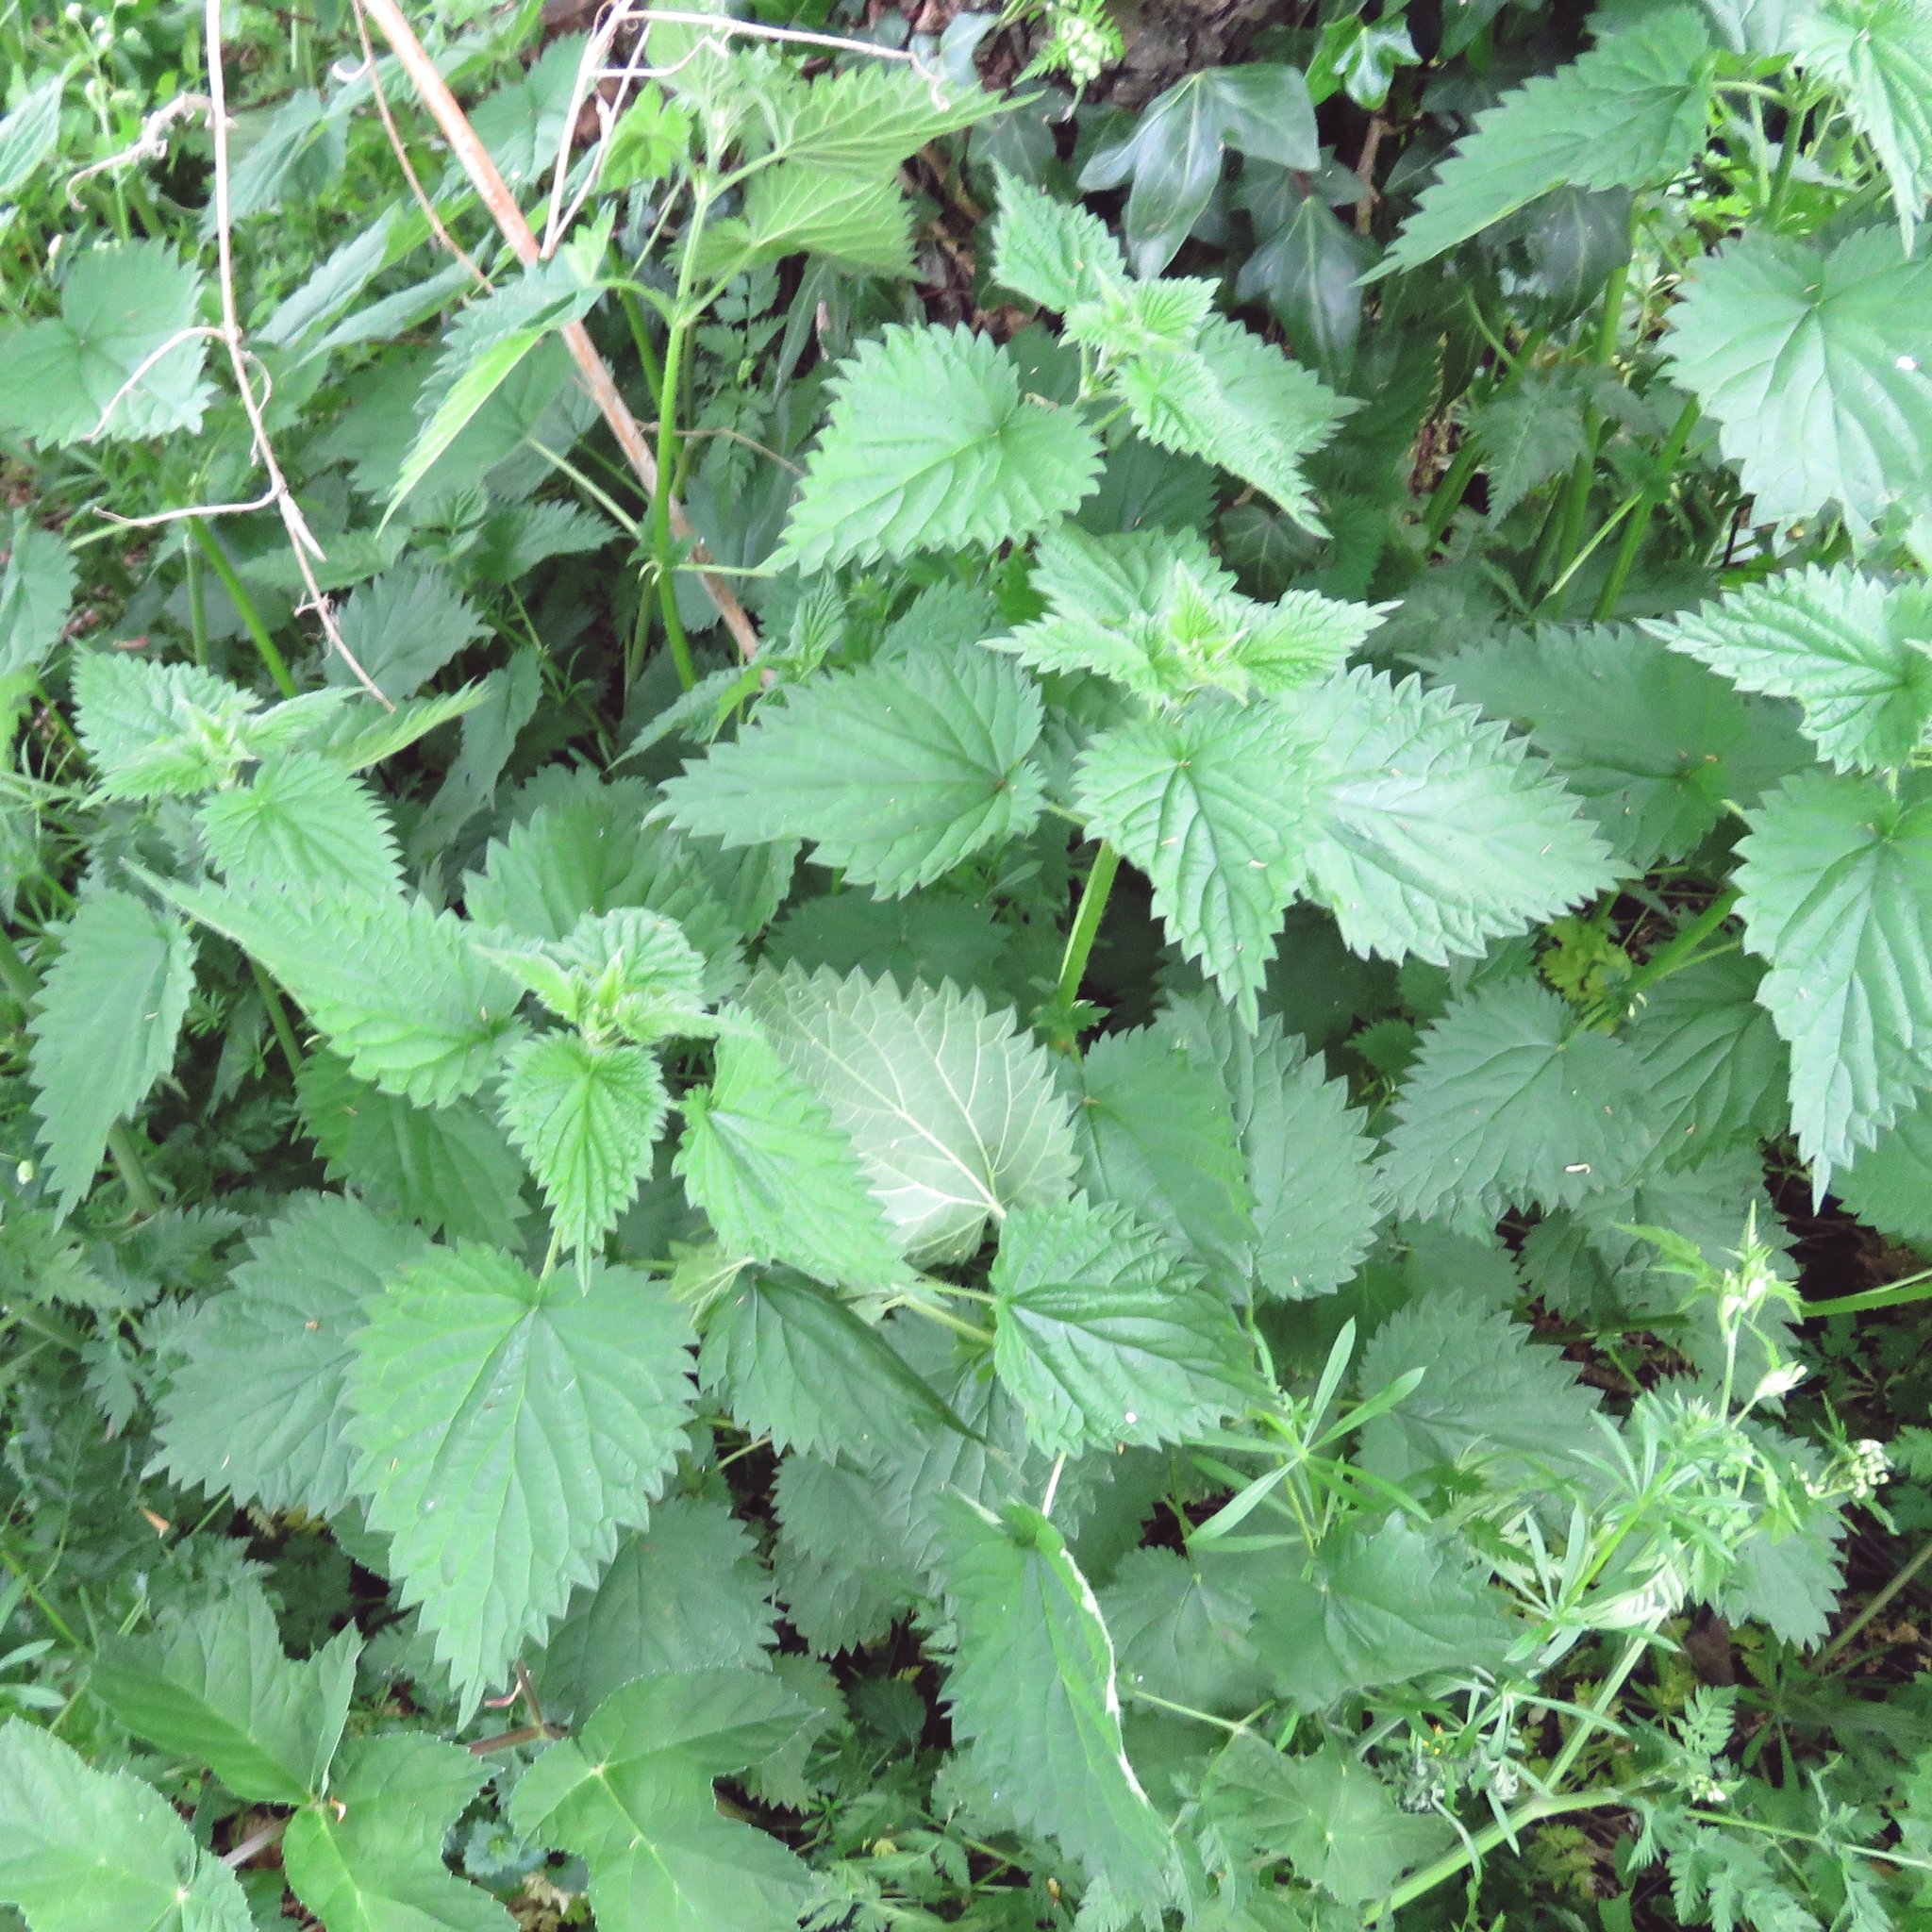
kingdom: Plantae
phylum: Tracheophyta
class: Magnoliopsida
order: Rosales
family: Urticaceae
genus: Urtica
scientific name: Urtica dioica
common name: Common nettle
